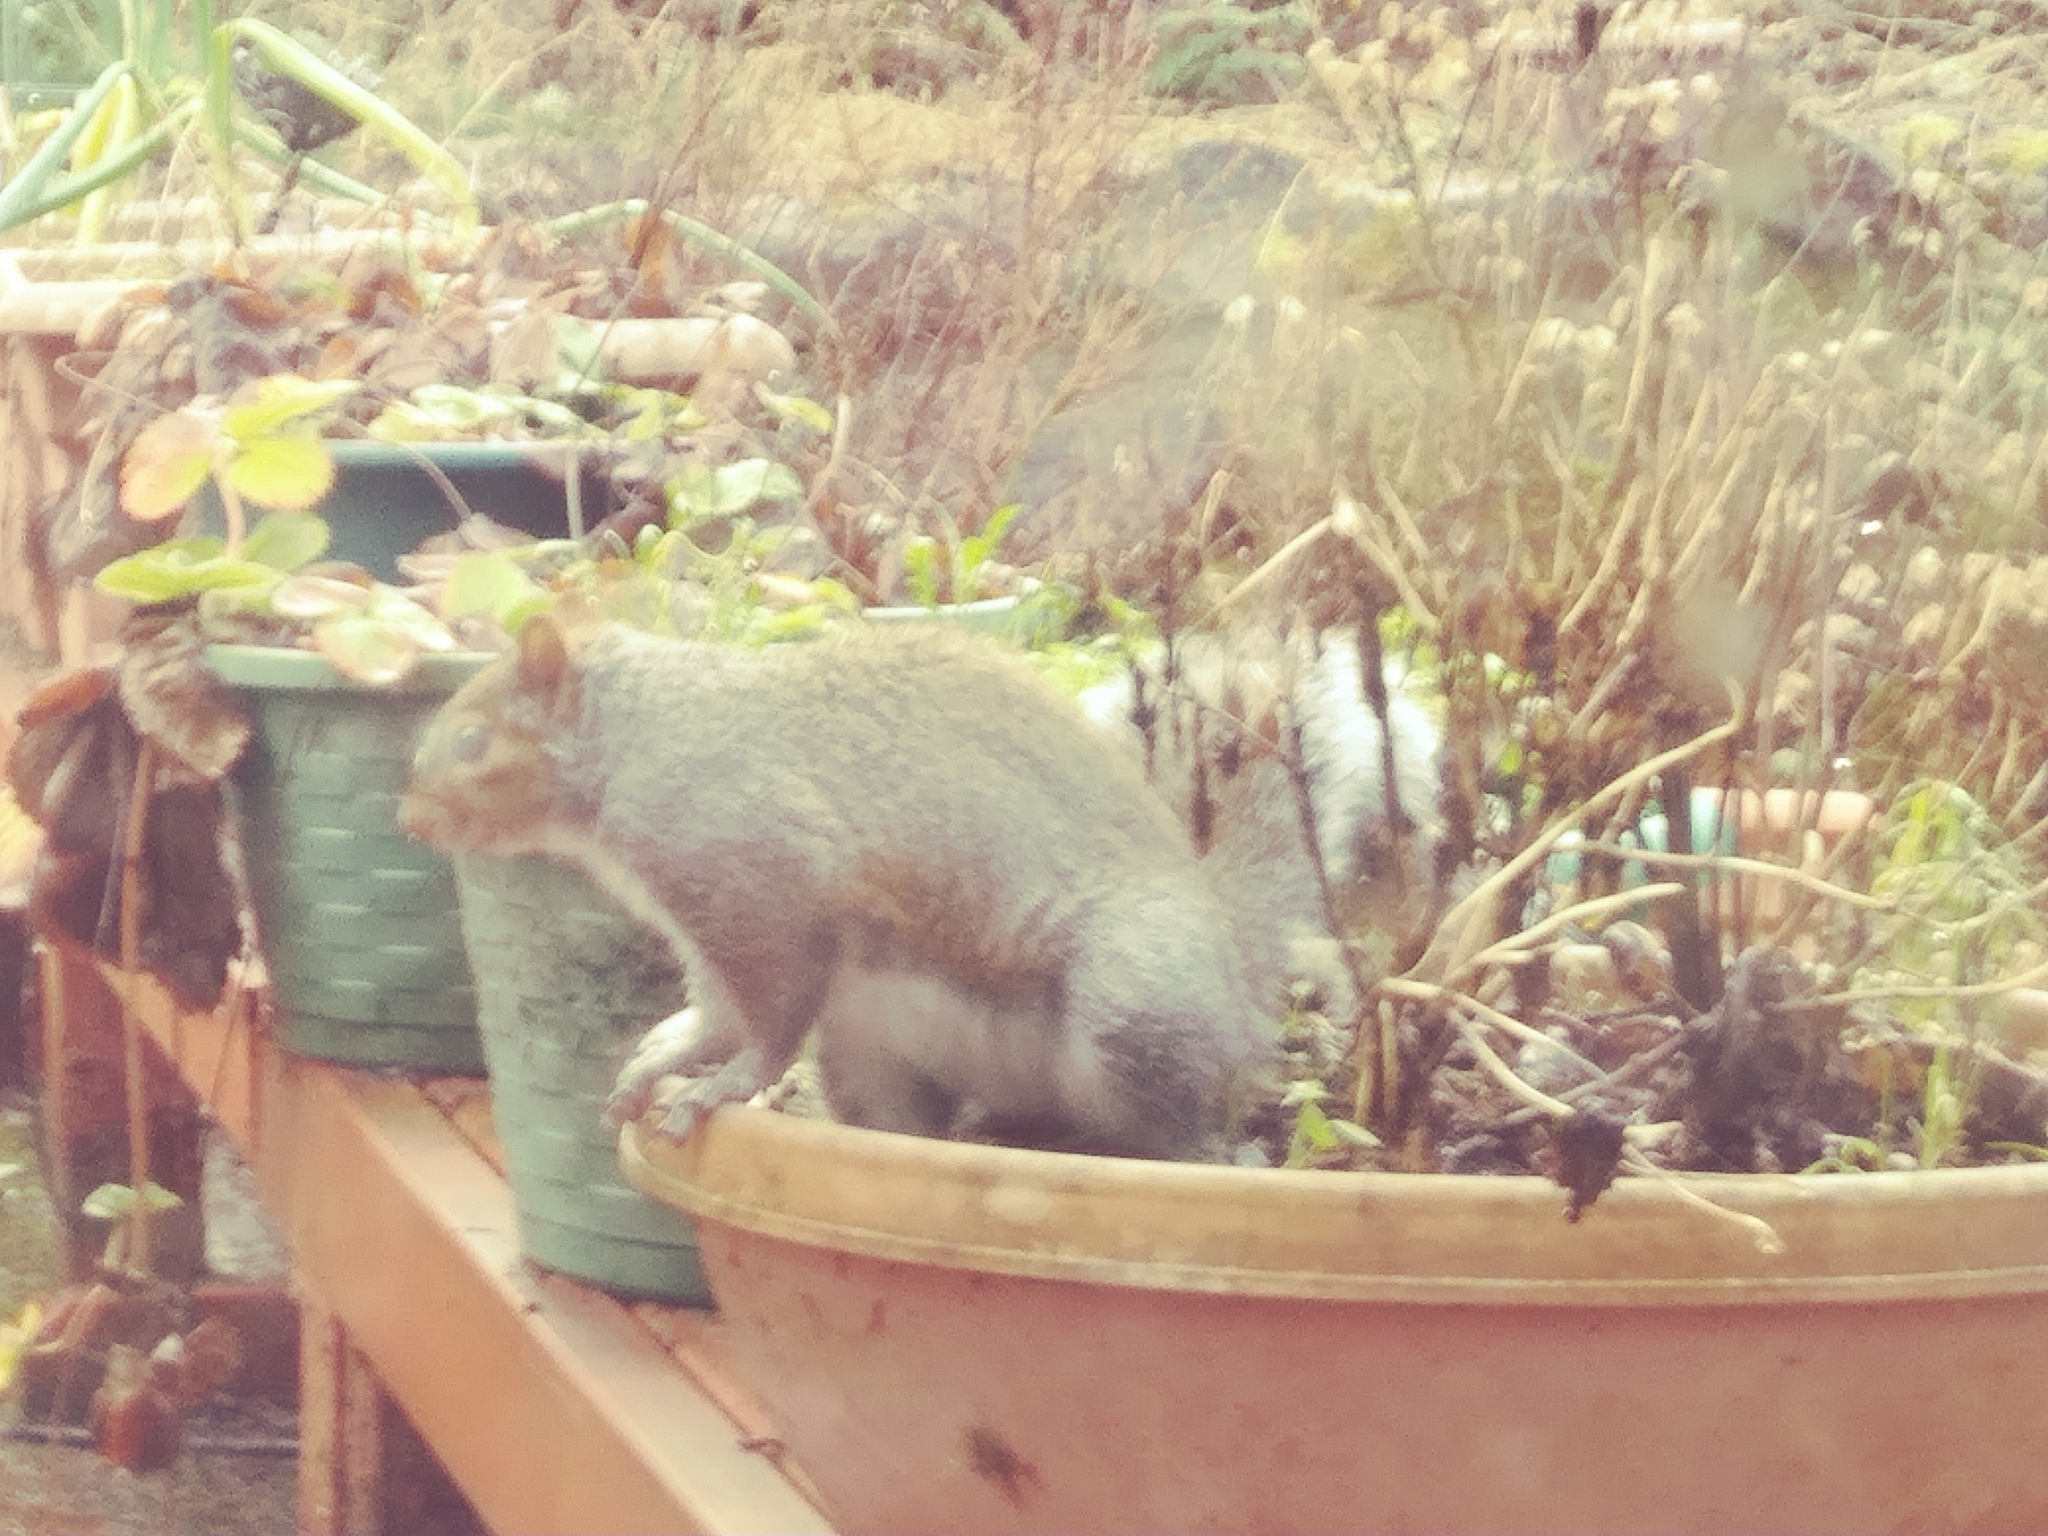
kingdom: Animalia
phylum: Chordata
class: Mammalia
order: Rodentia
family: Sciuridae
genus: Sciurus
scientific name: Sciurus carolinensis
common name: Eastern gray squirrel
